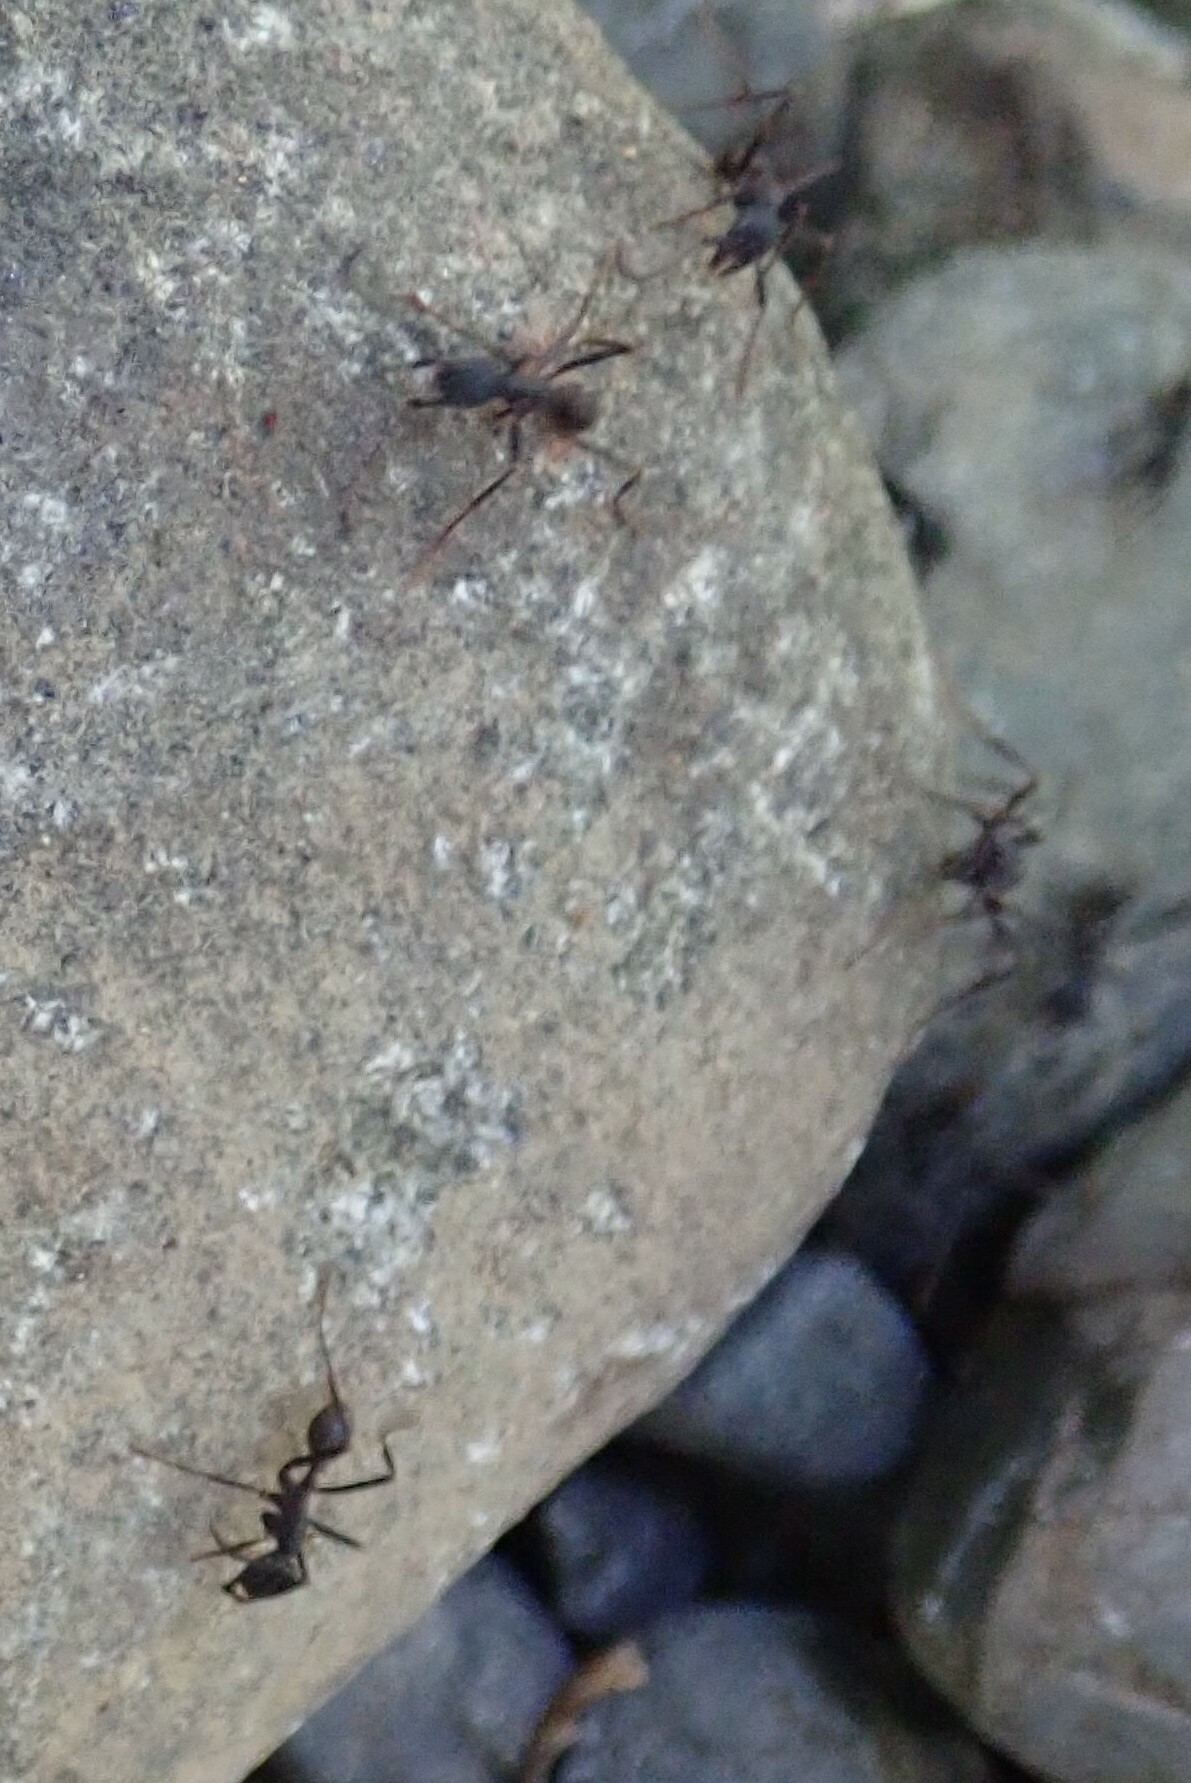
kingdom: Animalia
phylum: Arthropoda
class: Insecta
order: Hymenoptera
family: Formicidae
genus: Eciton
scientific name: Eciton burchellii
